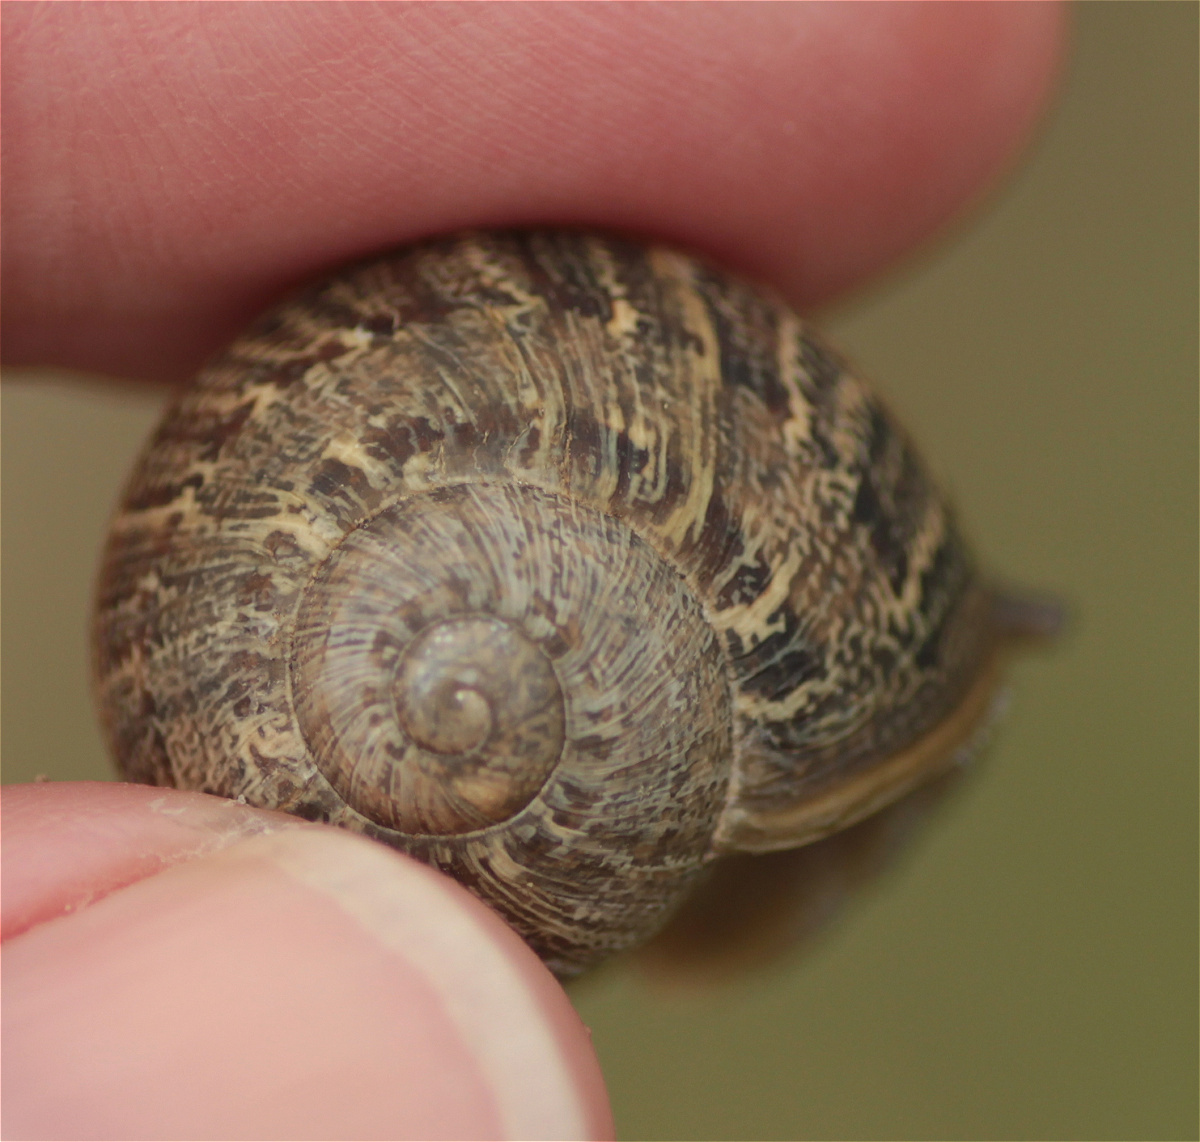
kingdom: Animalia
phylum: Mollusca
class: Gastropoda
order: Stylommatophora
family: Helicidae
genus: Cornu
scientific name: Cornu aspersum
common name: Brown garden snail
